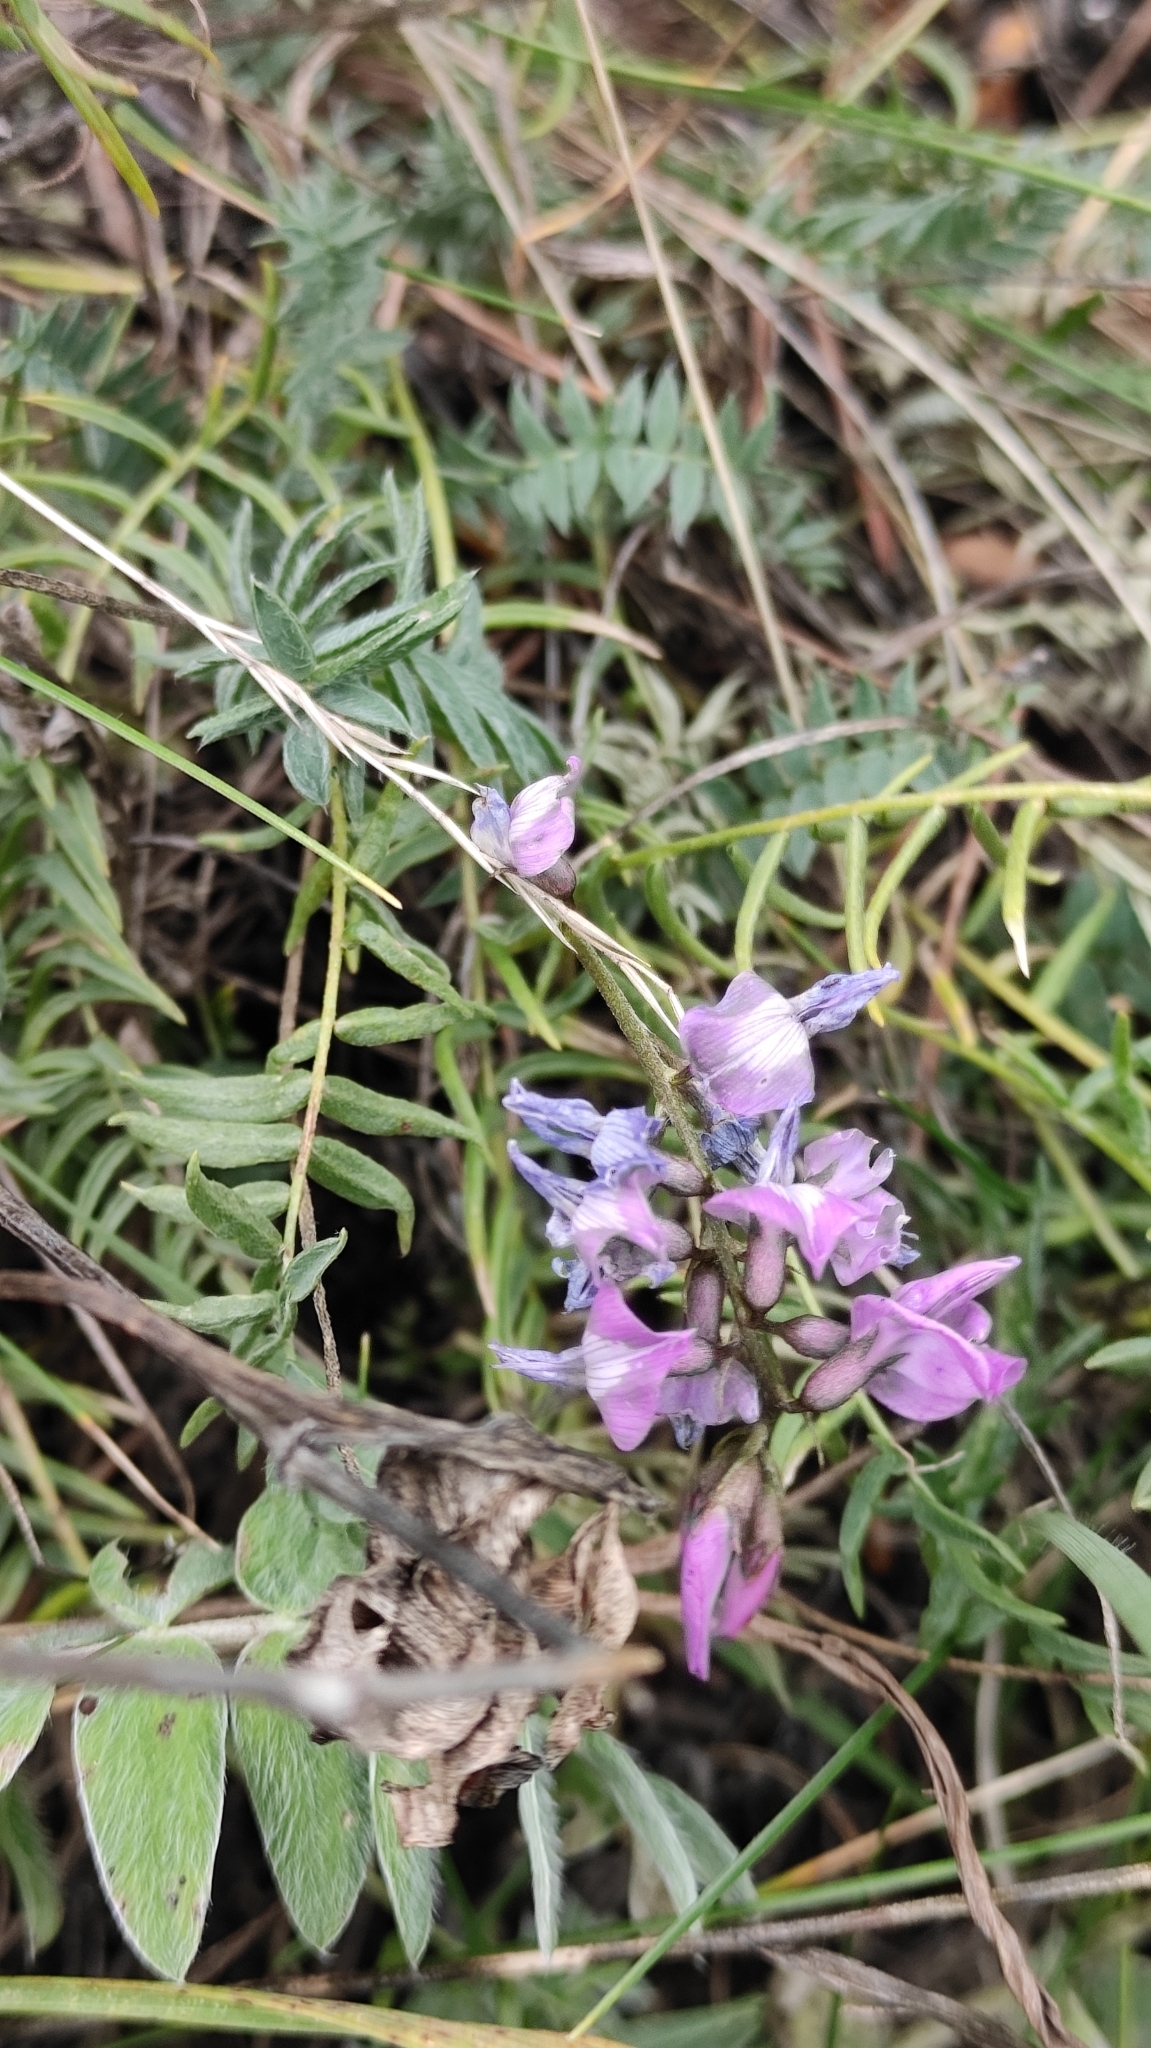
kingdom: Plantae
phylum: Tracheophyta
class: Magnoliopsida
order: Fabales
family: Fabaceae
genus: Oxytropis
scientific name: Oxytropis coerulea
